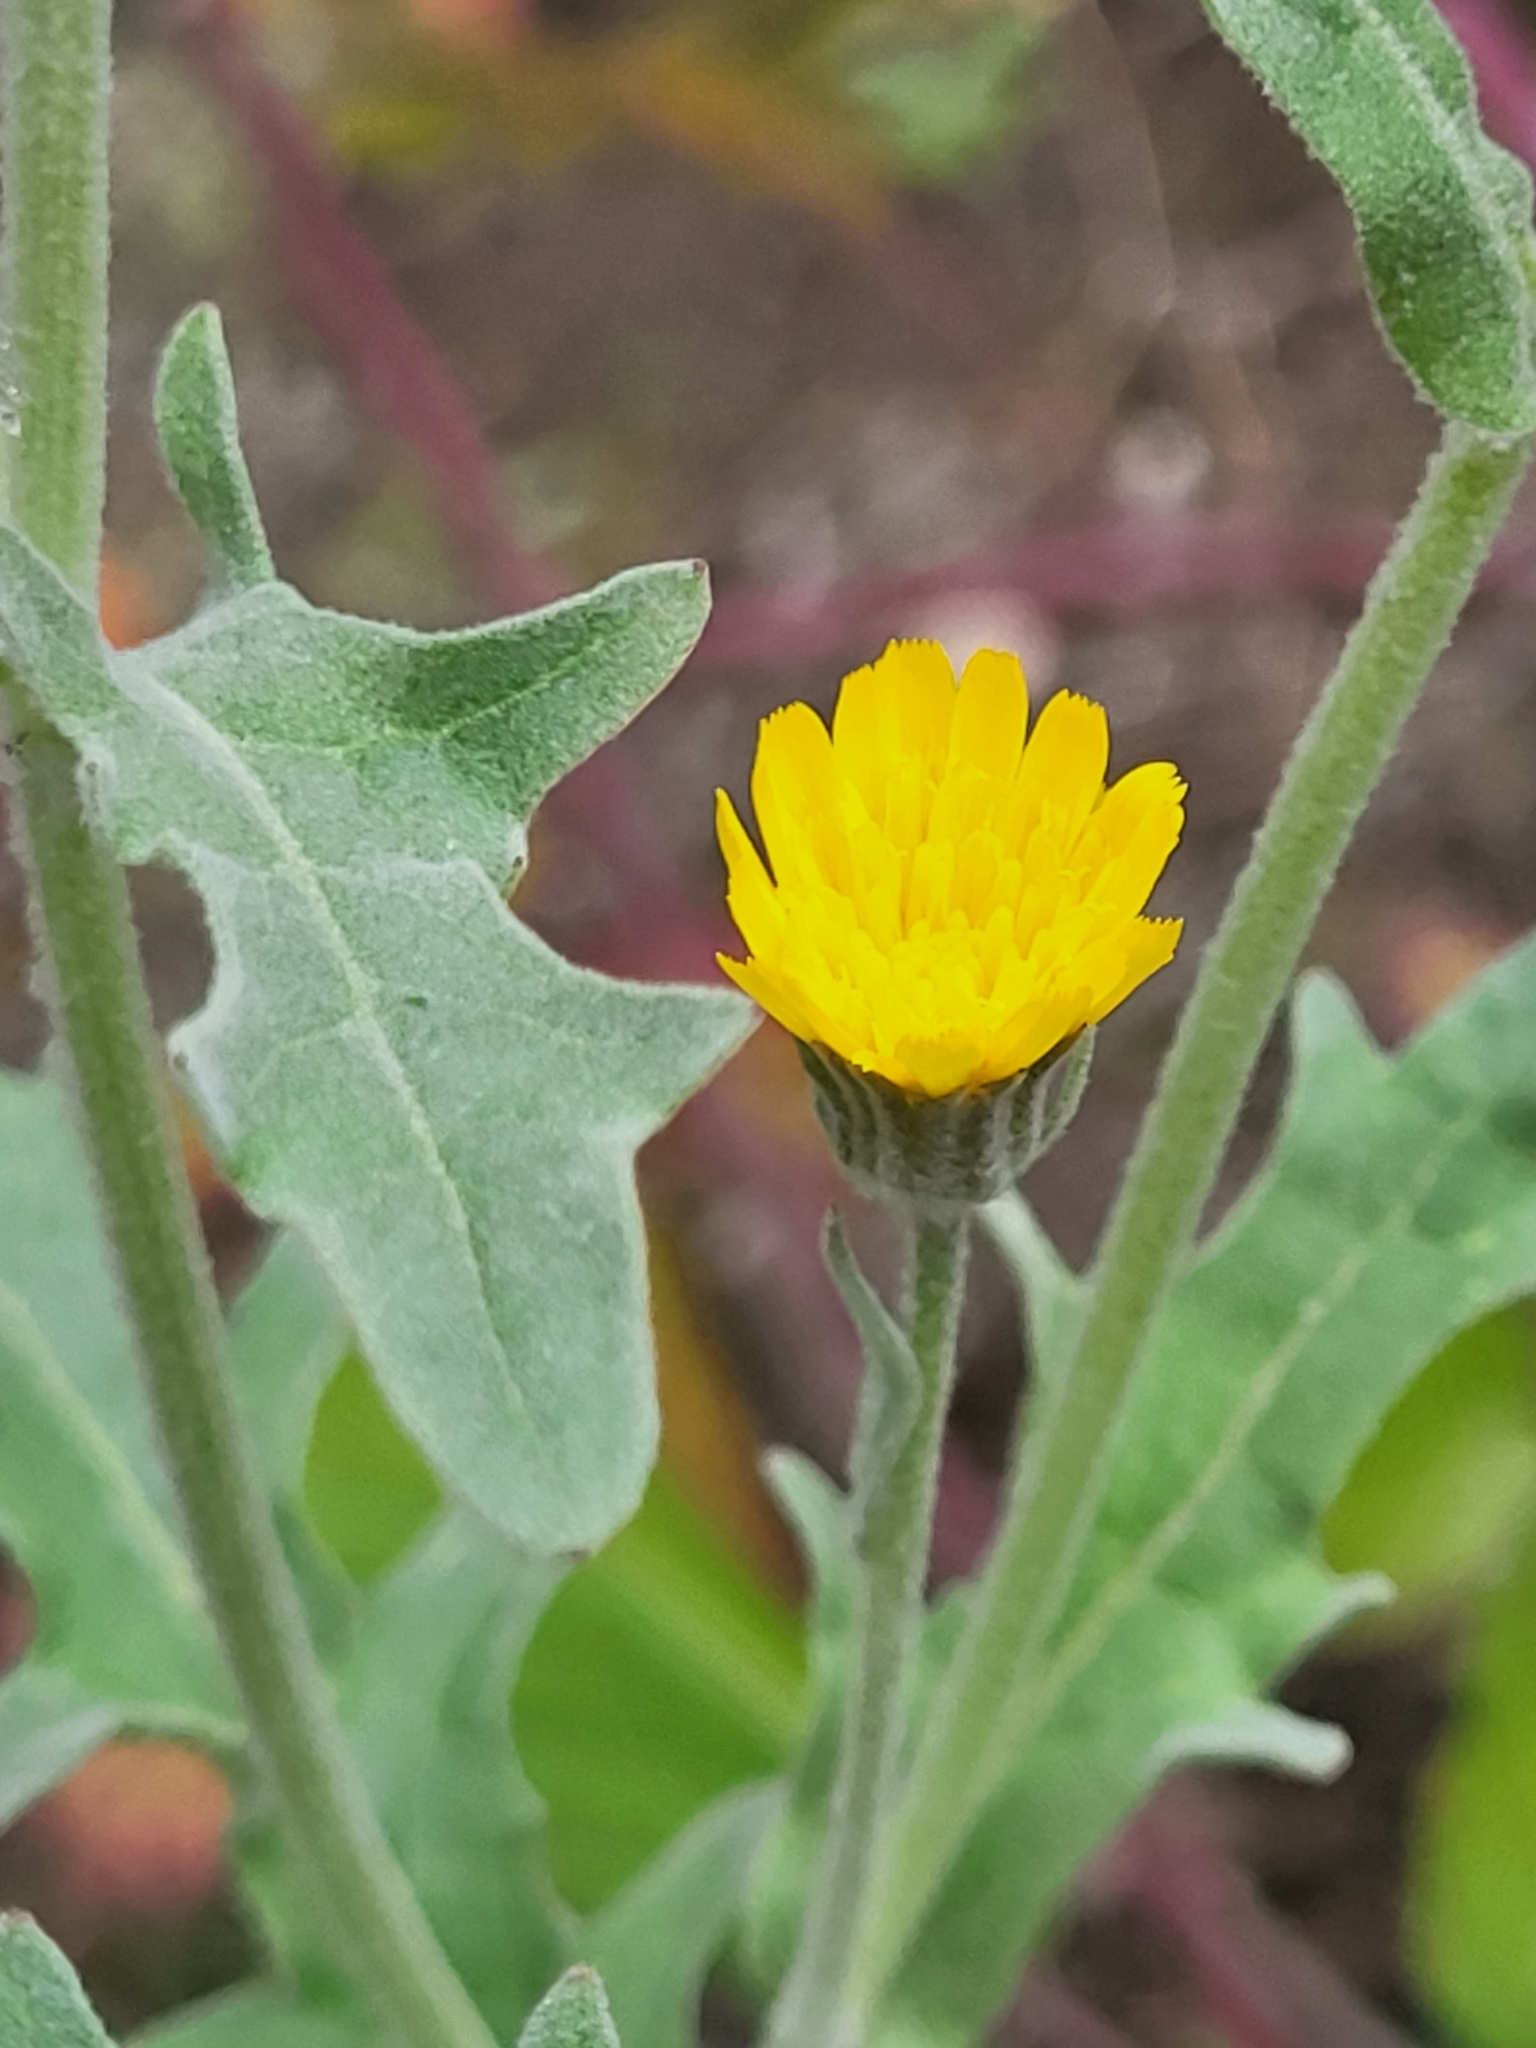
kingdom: Plantae
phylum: Tracheophyta
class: Magnoliopsida
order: Asterales
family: Asteraceae
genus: Andryala
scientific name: Andryala pinnatifida
